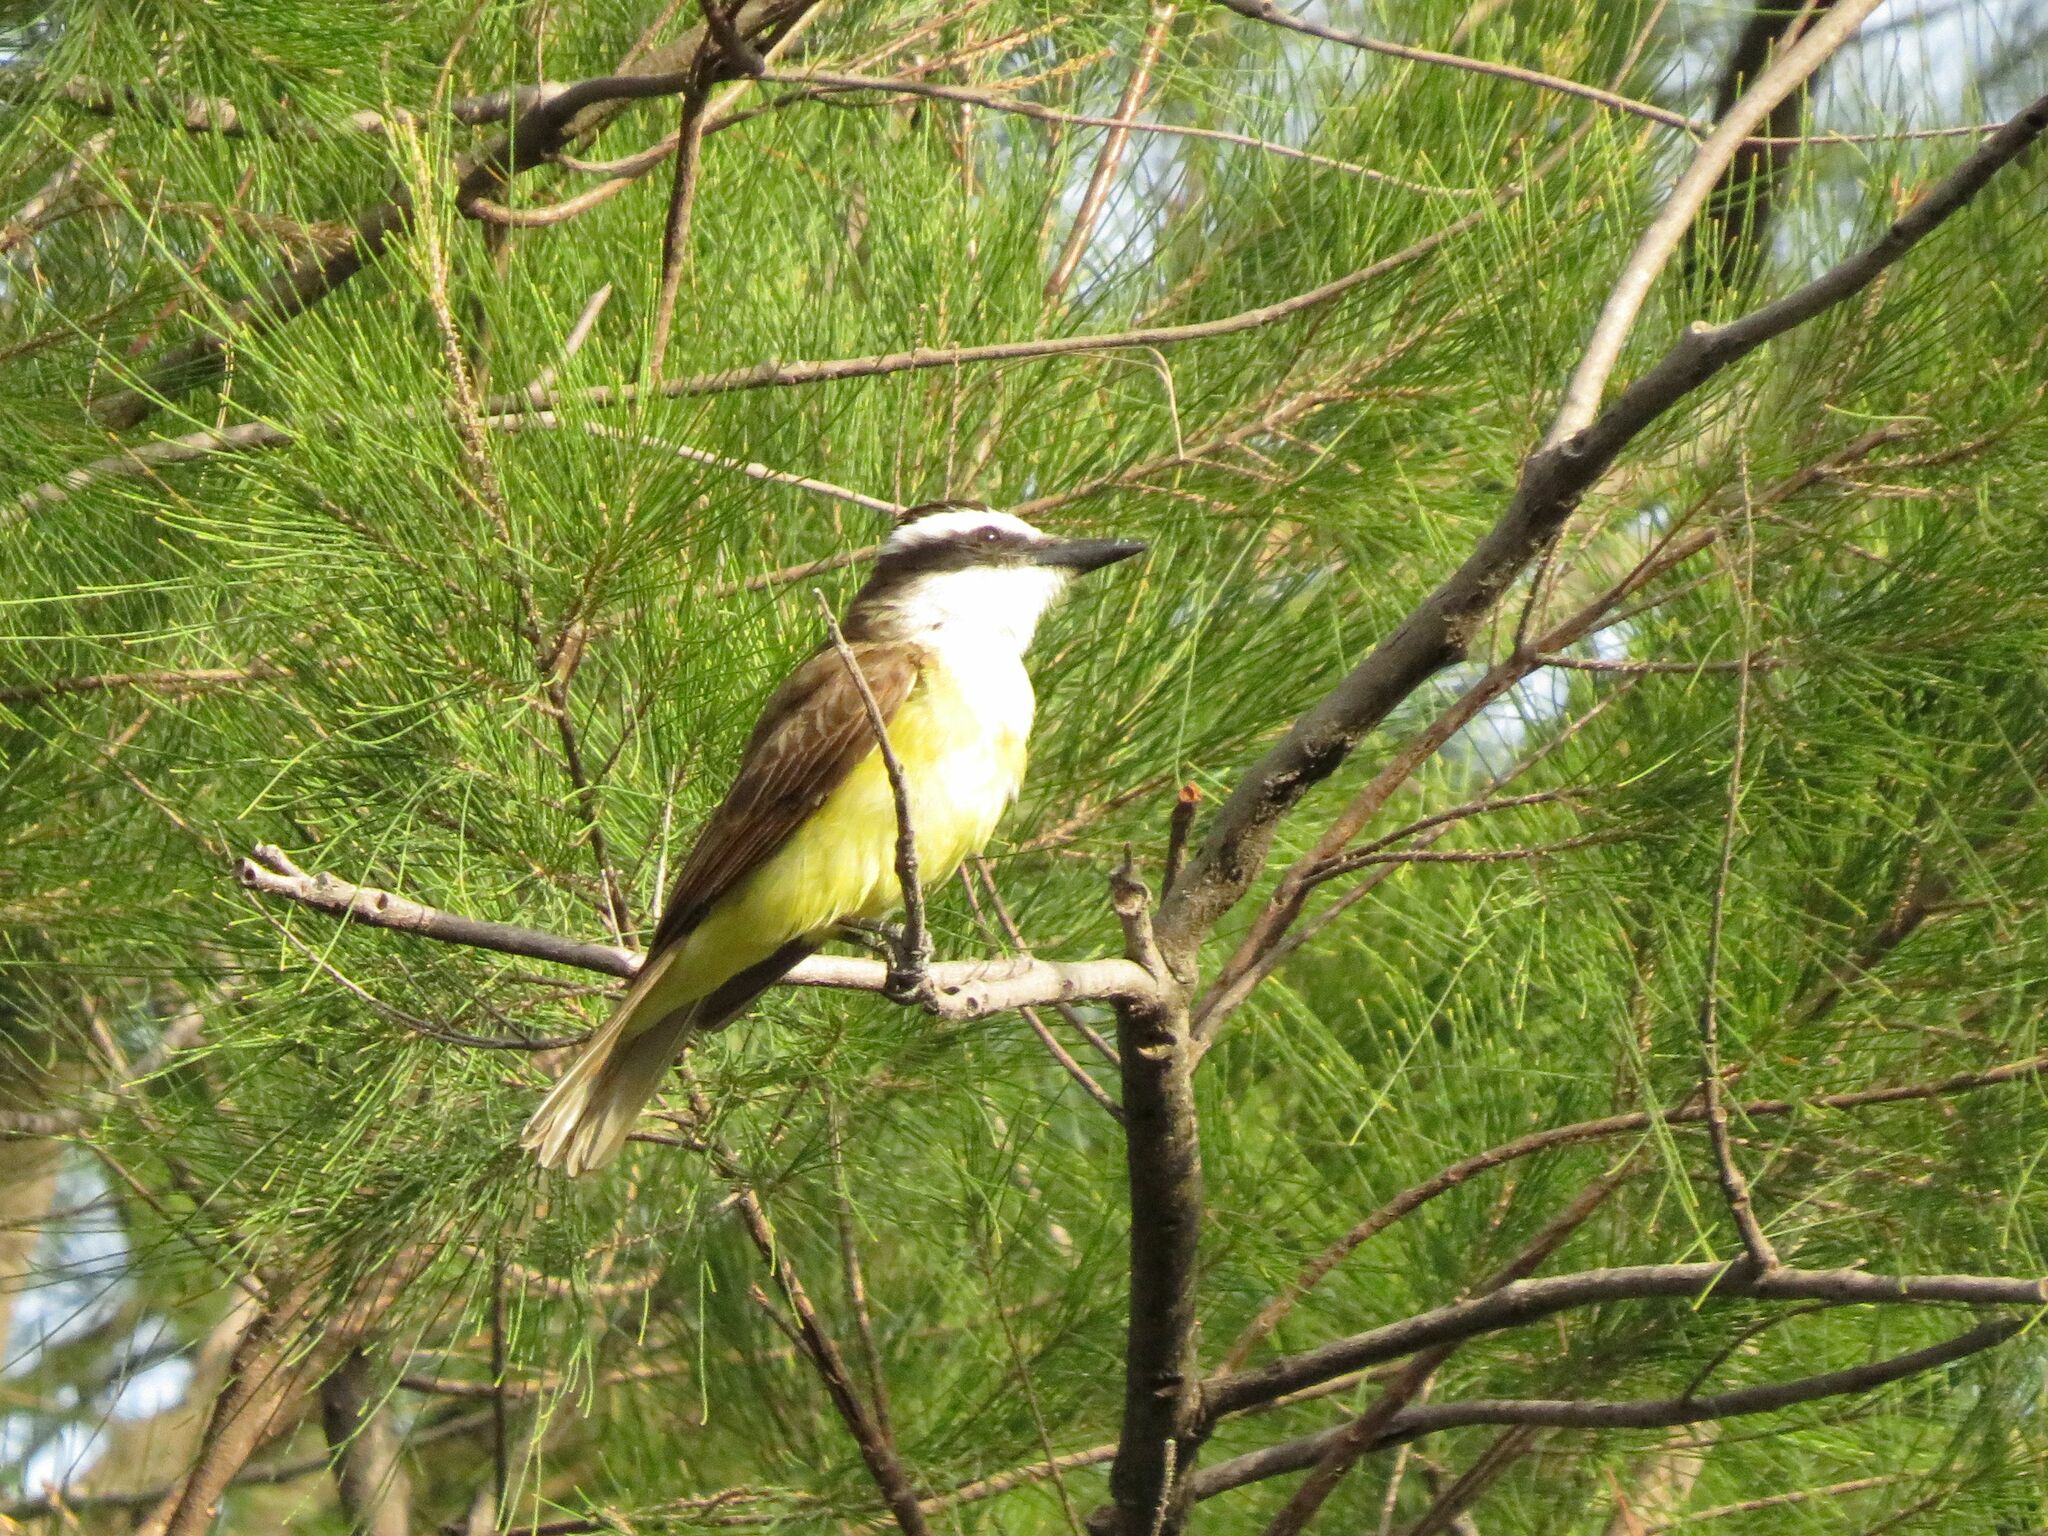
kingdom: Animalia
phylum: Chordata
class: Aves
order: Passeriformes
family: Tyrannidae
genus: Pitangus
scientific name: Pitangus sulphuratus
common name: Great kiskadee
